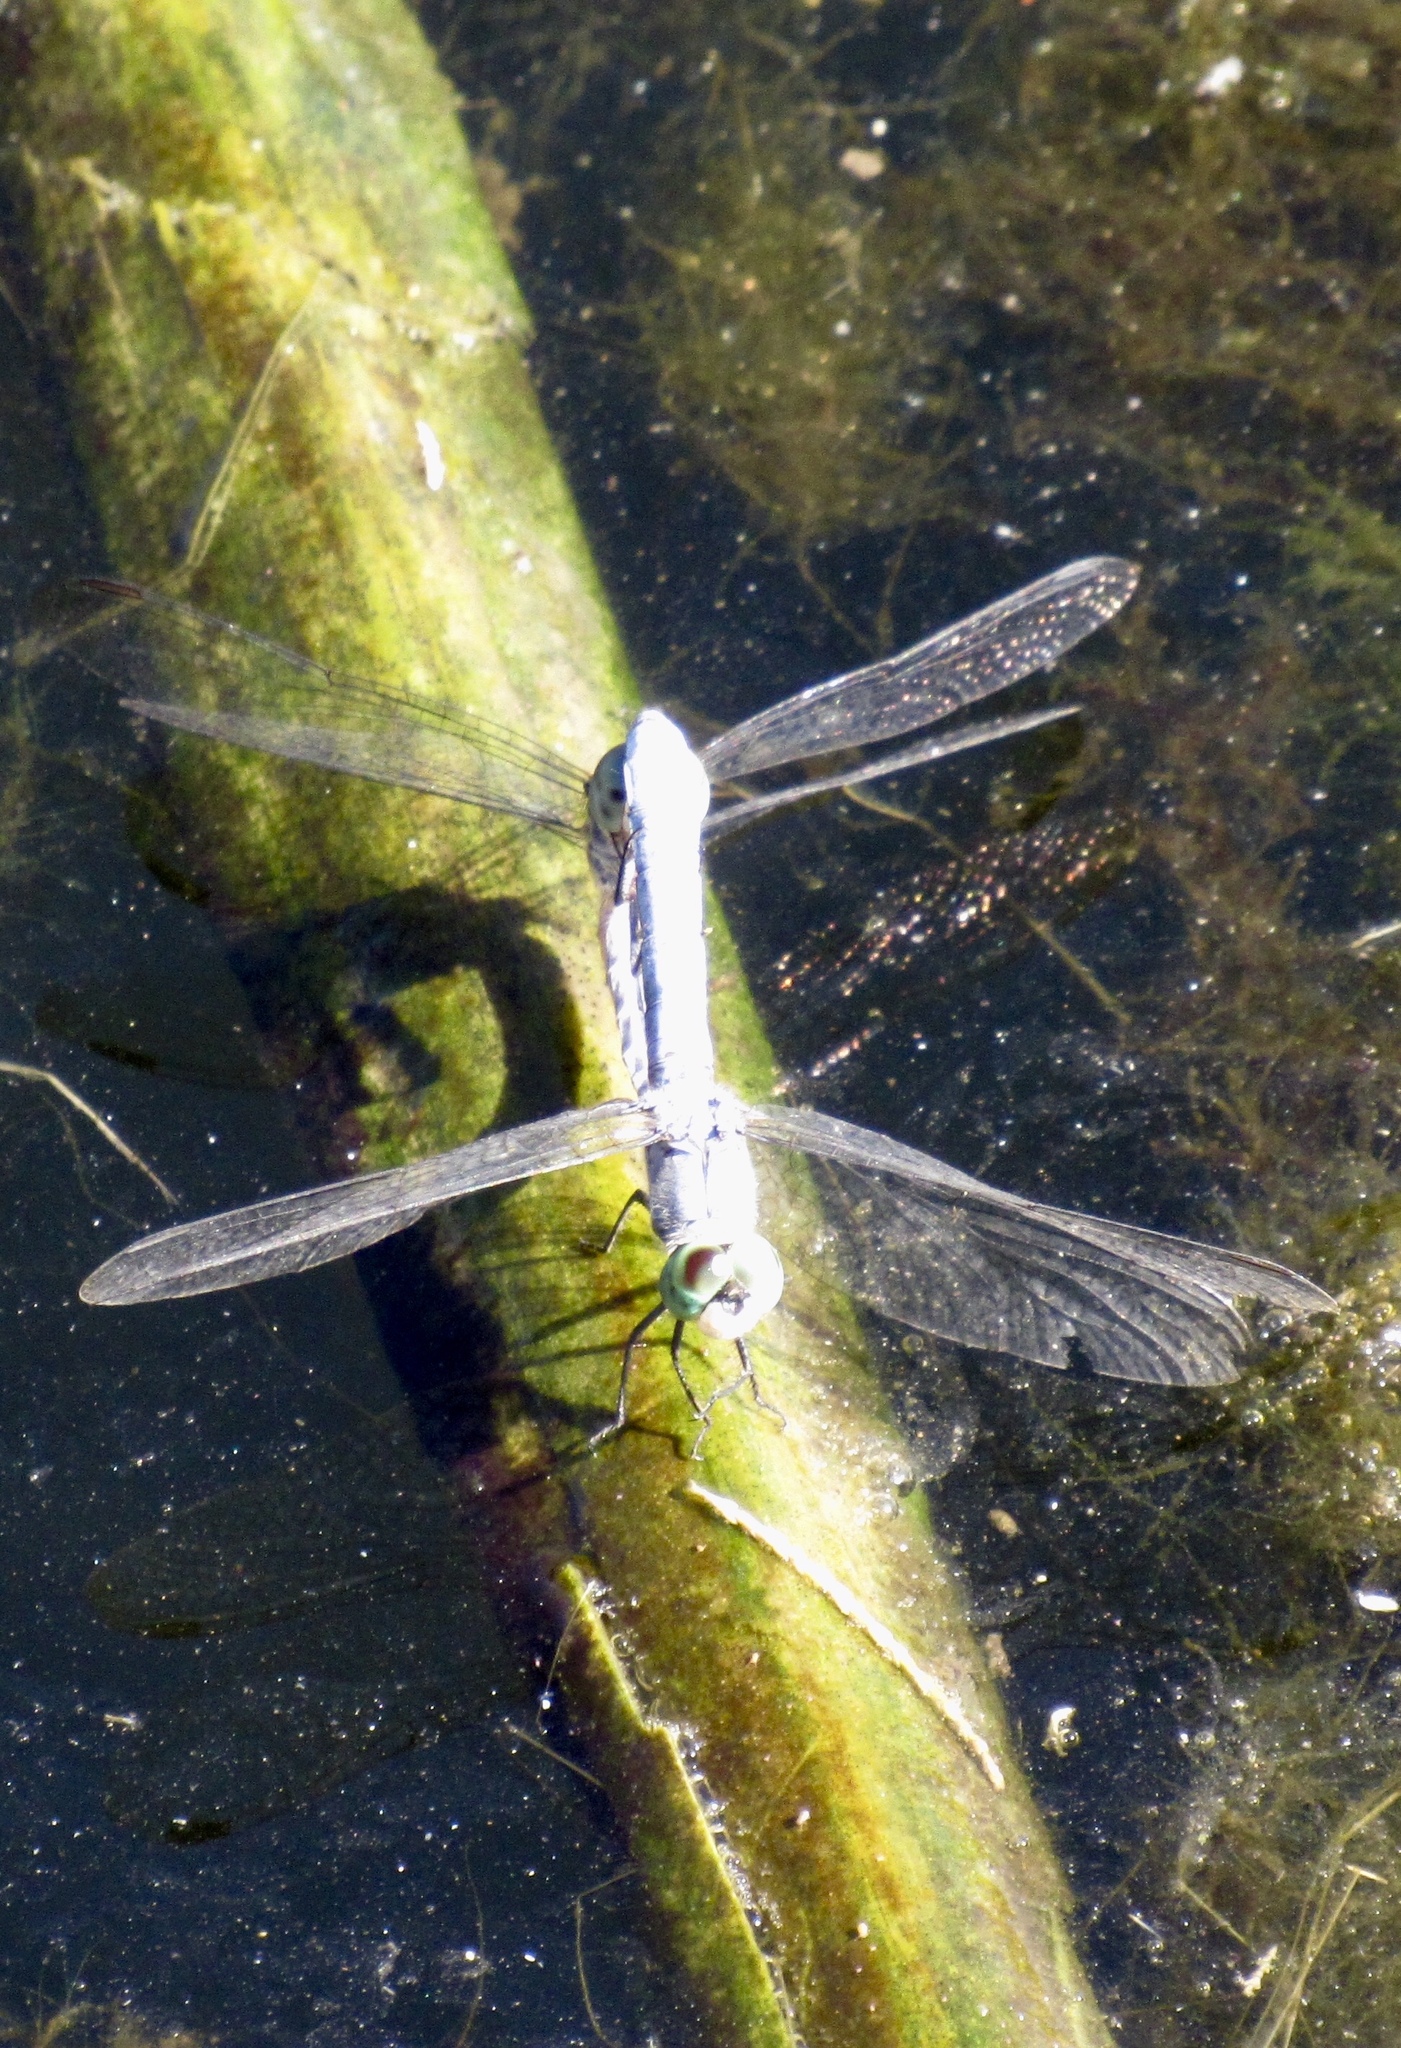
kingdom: Animalia
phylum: Arthropoda
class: Insecta
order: Odonata
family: Libellulidae
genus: Pachydiplax
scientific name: Pachydiplax longipennis
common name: Blue dasher
